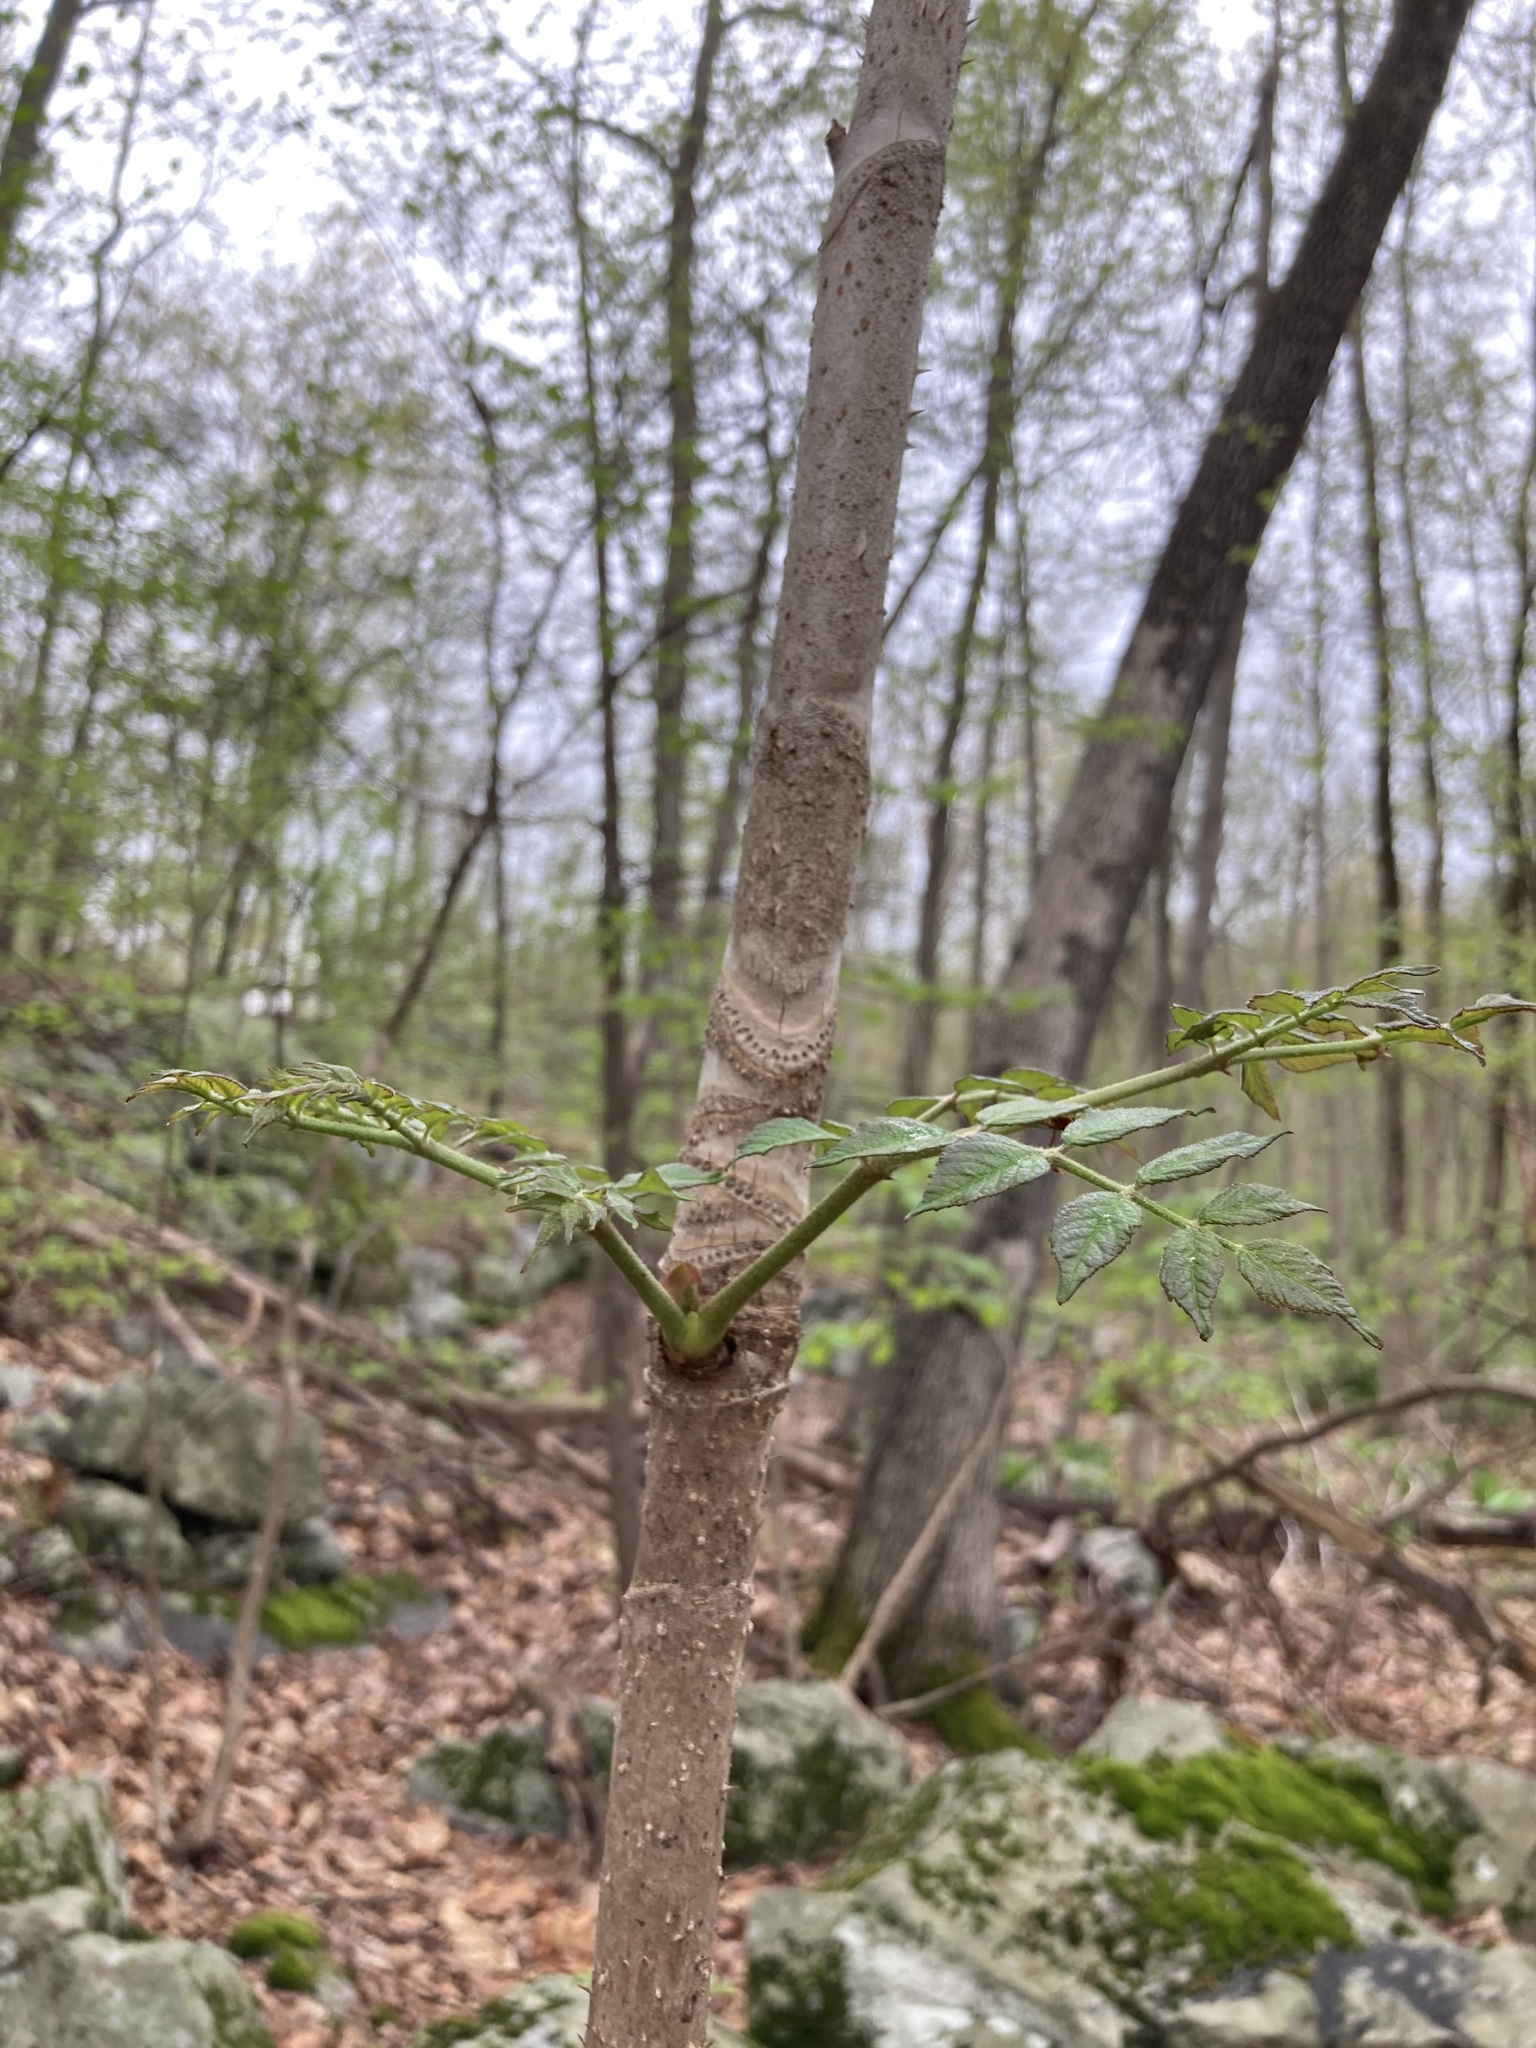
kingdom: Plantae
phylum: Tracheophyta
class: Magnoliopsida
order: Apiales
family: Araliaceae
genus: Aralia
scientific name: Aralia elata
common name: Japanese angelica-tree
